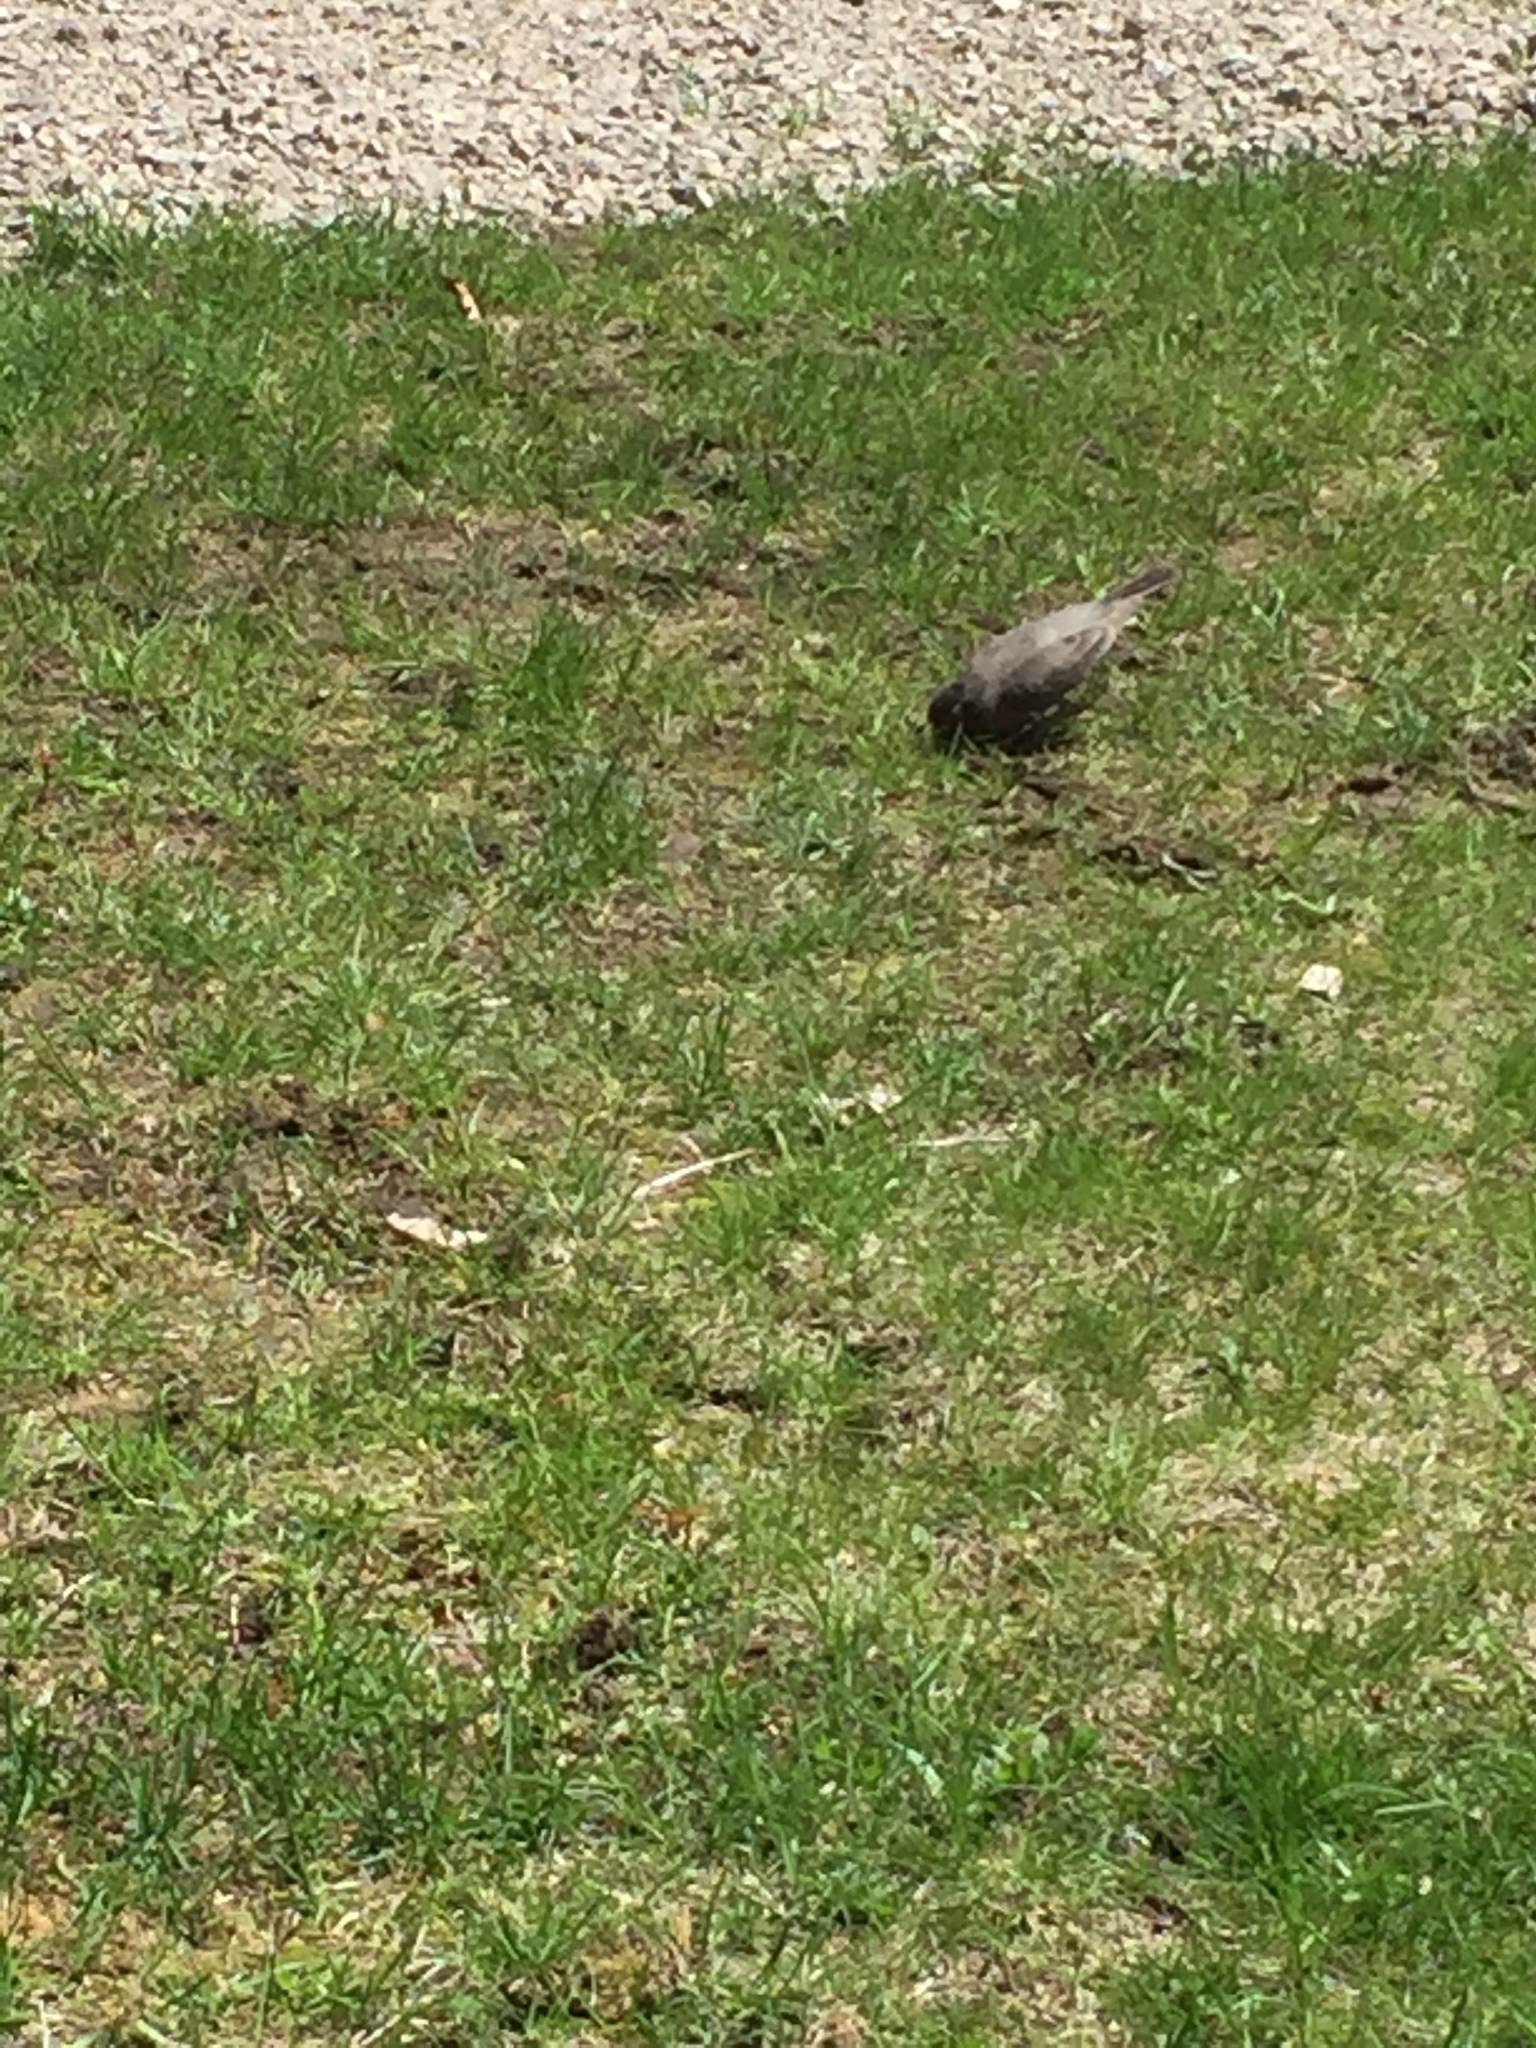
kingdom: Animalia
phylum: Chordata
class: Aves
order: Passeriformes
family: Turdidae
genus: Turdus
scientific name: Turdus migratorius
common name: American robin
